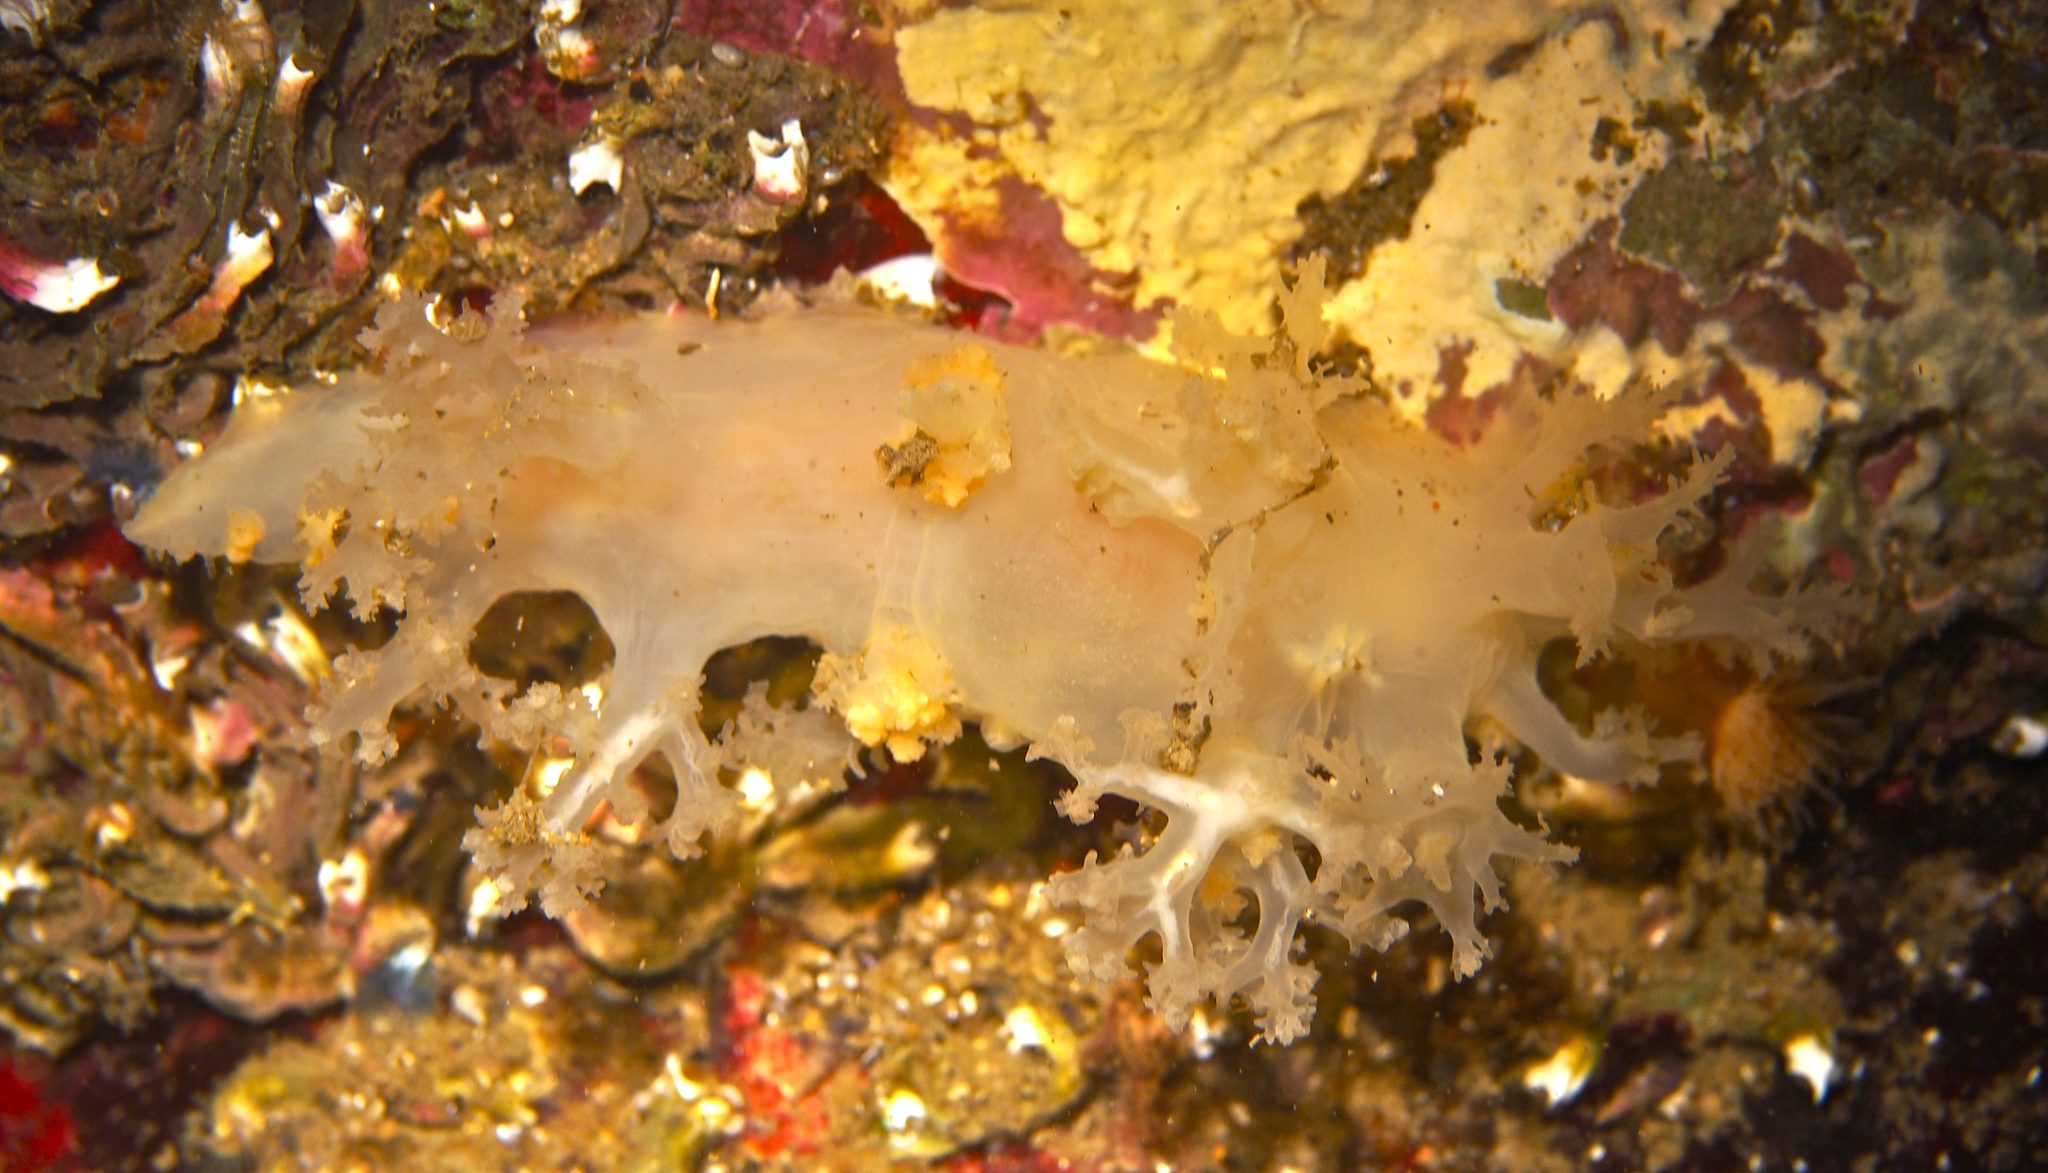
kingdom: Animalia
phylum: Mollusca
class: Gastropoda
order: Nudibranchia
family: Dendronotidae
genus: Dendronotus
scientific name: Dendronotus lacteus
